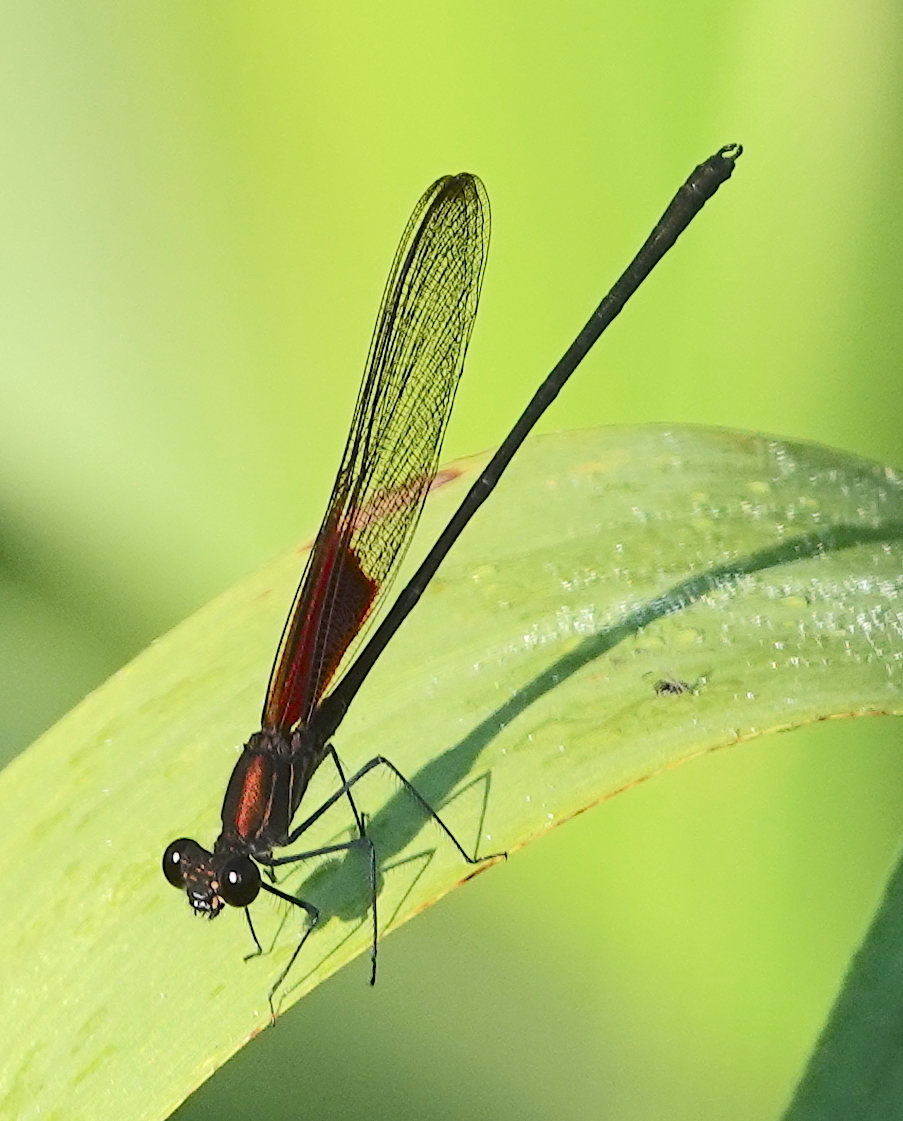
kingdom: Animalia
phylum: Arthropoda
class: Insecta
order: Odonata
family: Calopterygidae
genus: Hetaerina
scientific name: Hetaerina titia
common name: Smoky rubyspot
